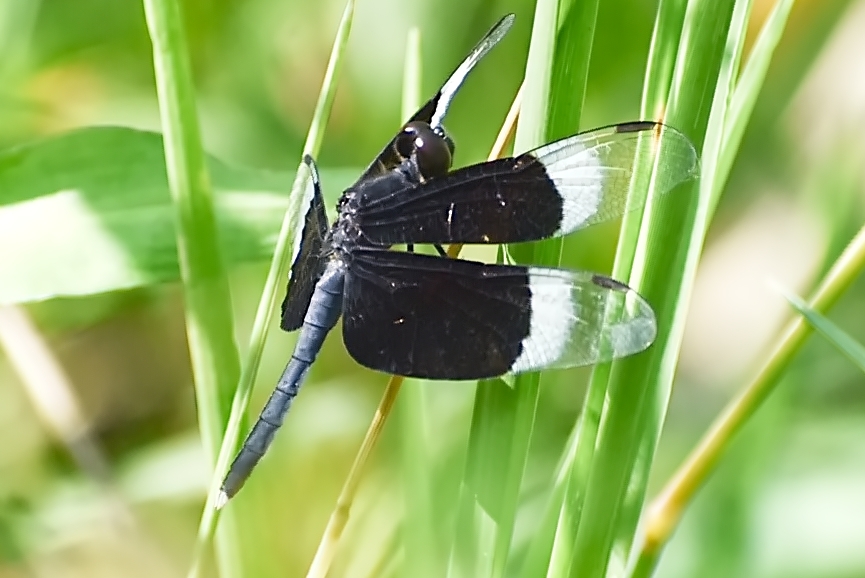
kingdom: Animalia
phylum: Arthropoda
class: Insecta
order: Odonata
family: Libellulidae
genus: Neurothemis
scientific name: Neurothemis tullia
